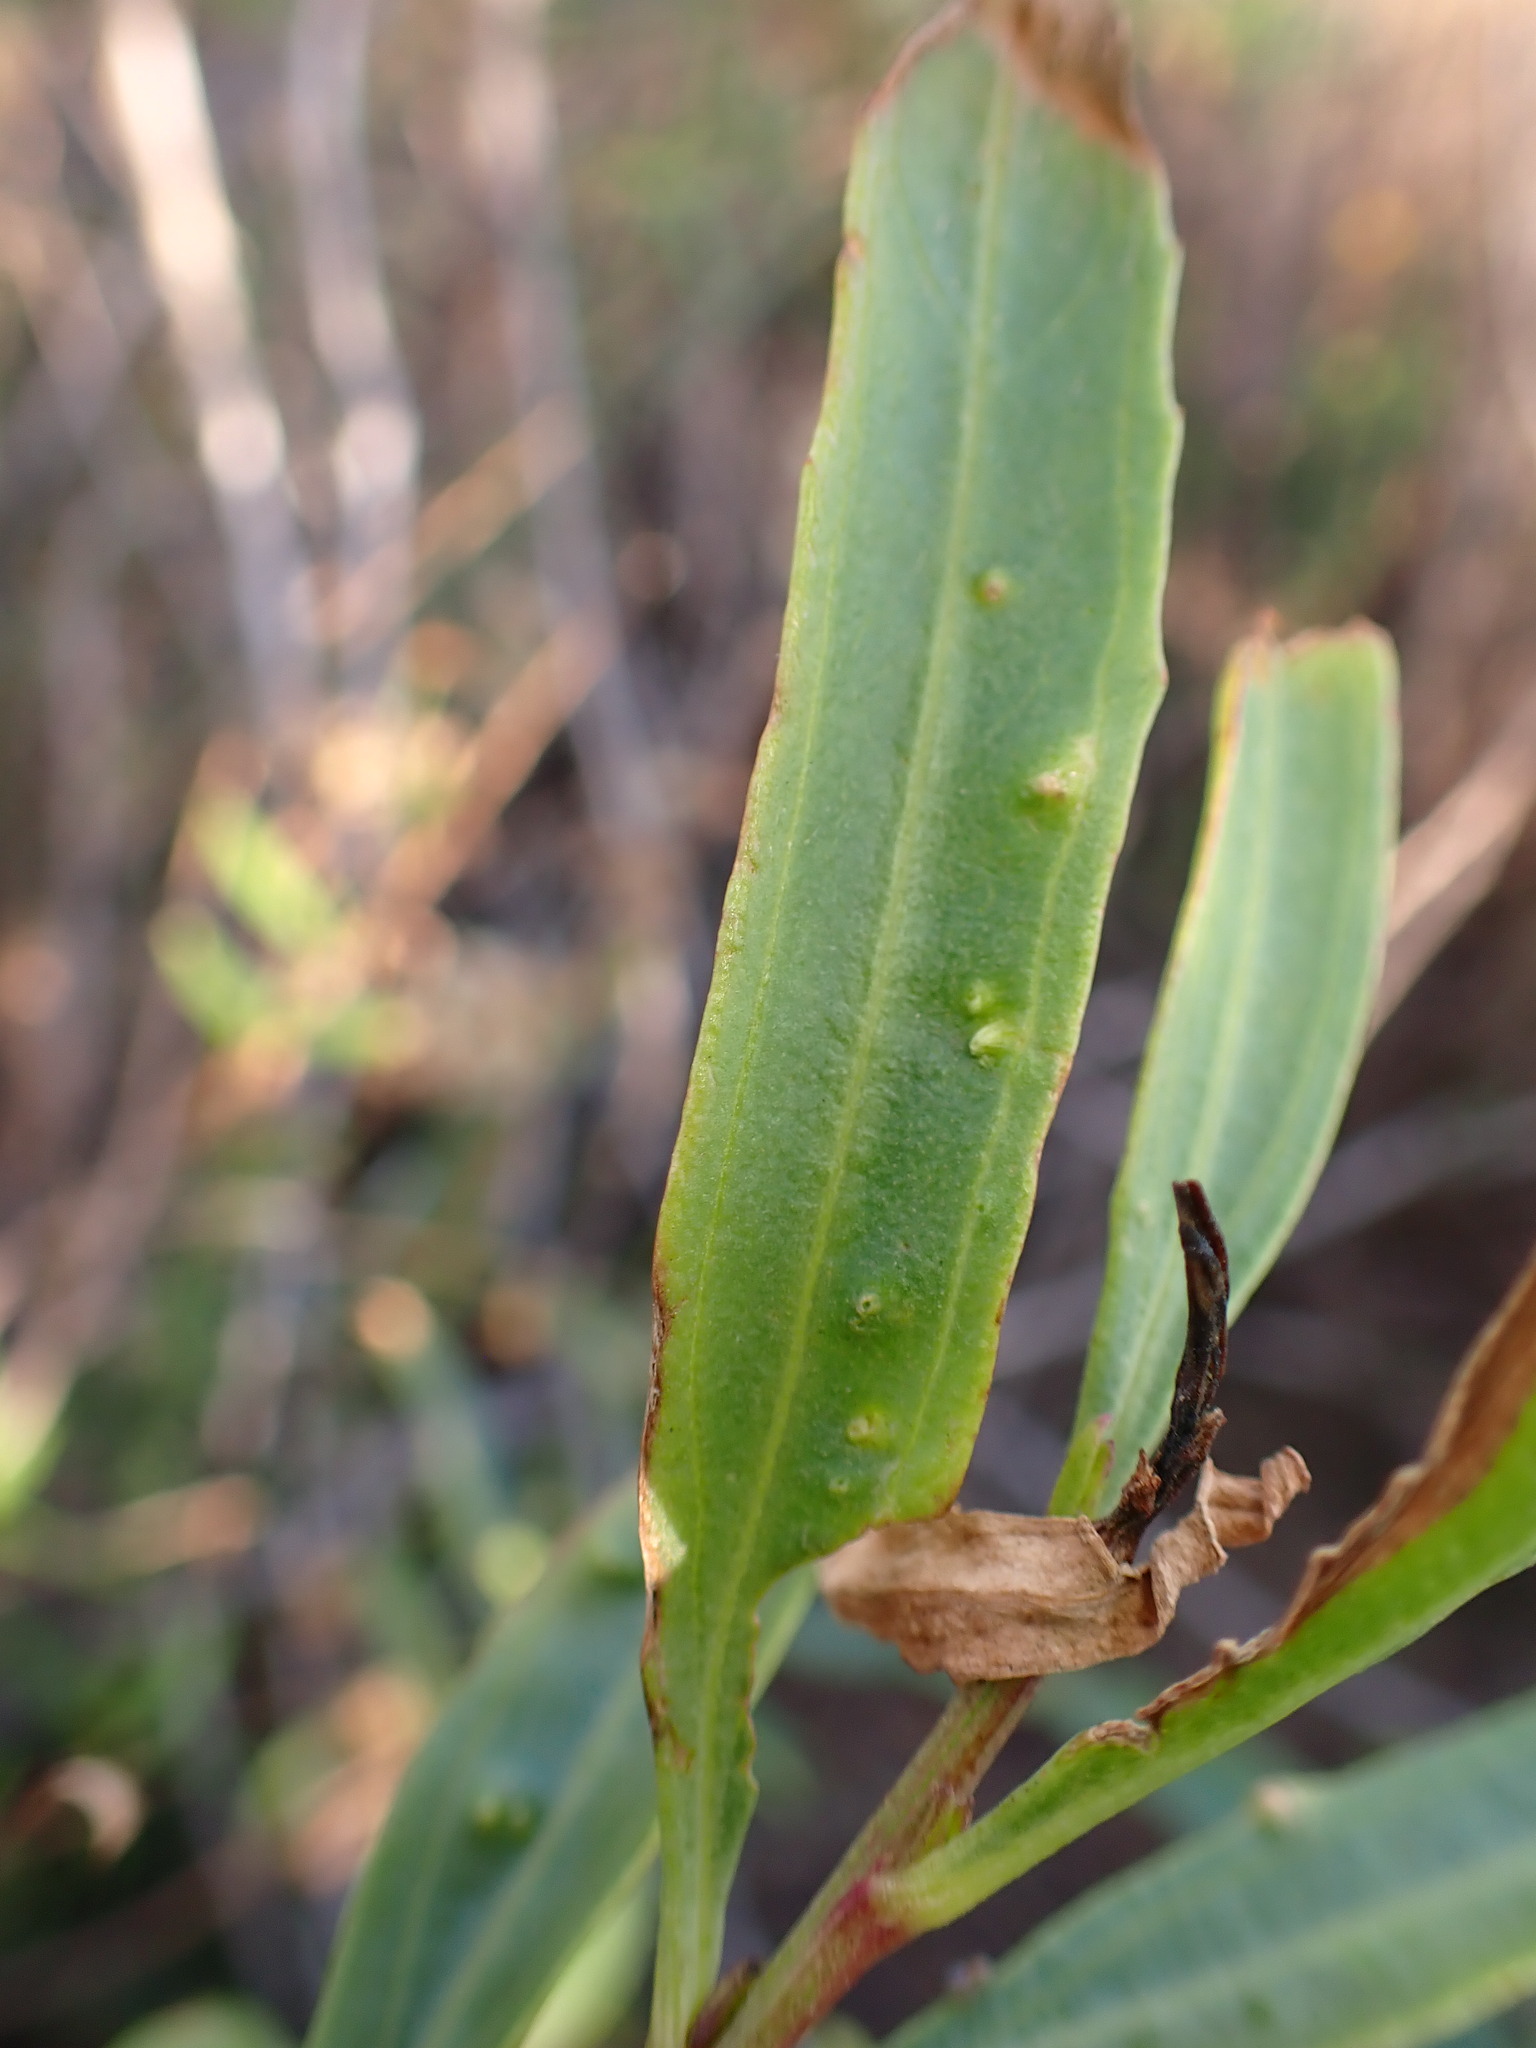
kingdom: Animalia
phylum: Arthropoda
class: Arachnida
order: Trombidiformes
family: Eriophyidae
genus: Aceria
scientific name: Aceria
